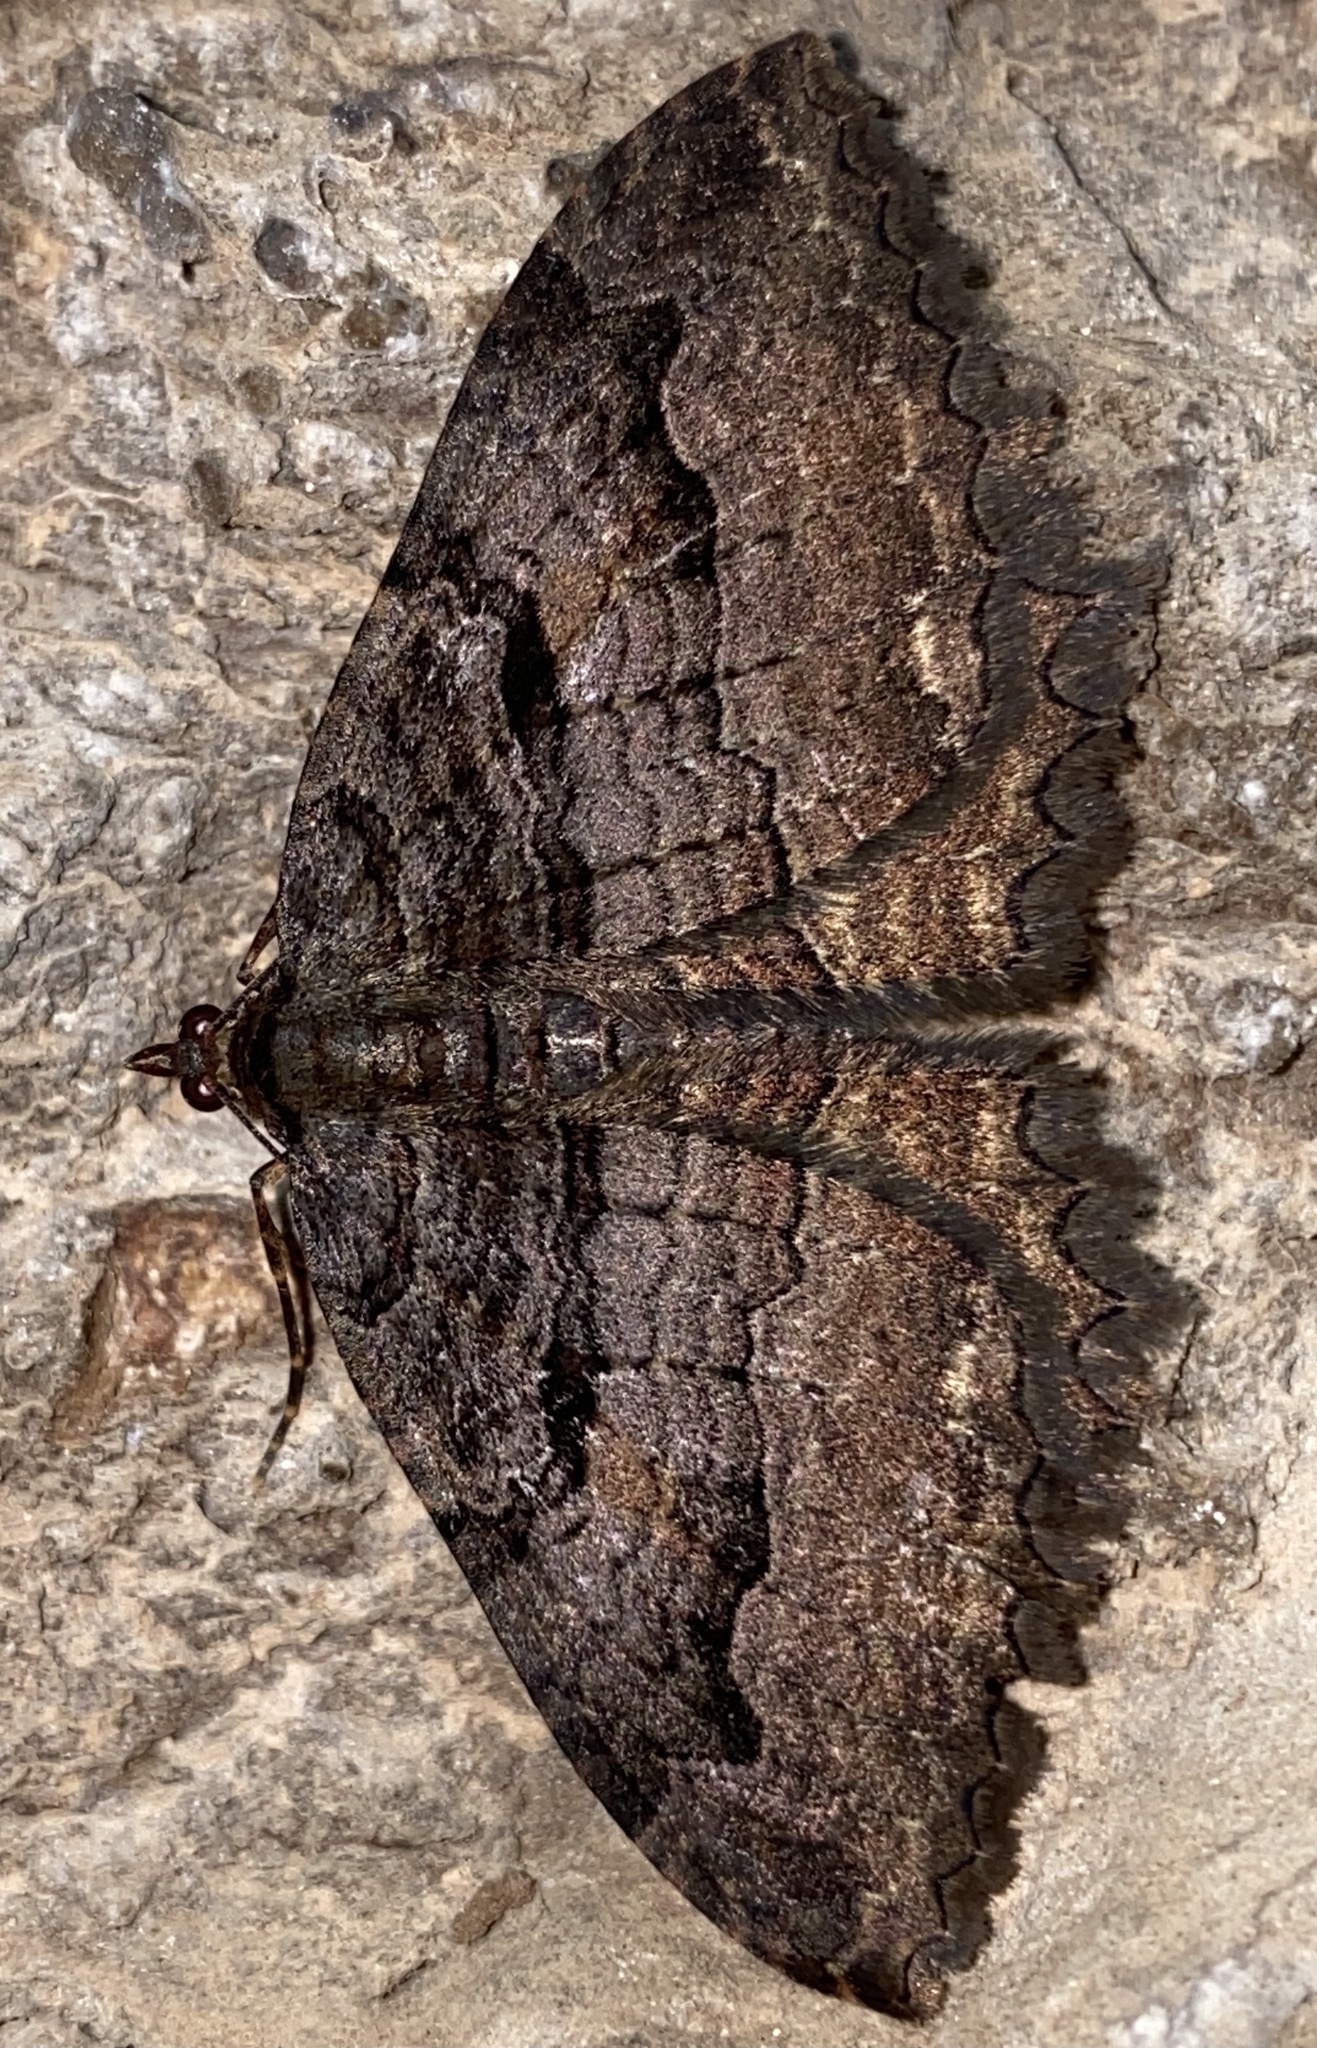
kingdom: Animalia
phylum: Arthropoda
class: Insecta
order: Lepidoptera
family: Geometridae
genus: Triphosa
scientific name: Triphosa haesitata
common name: Tissue moth
